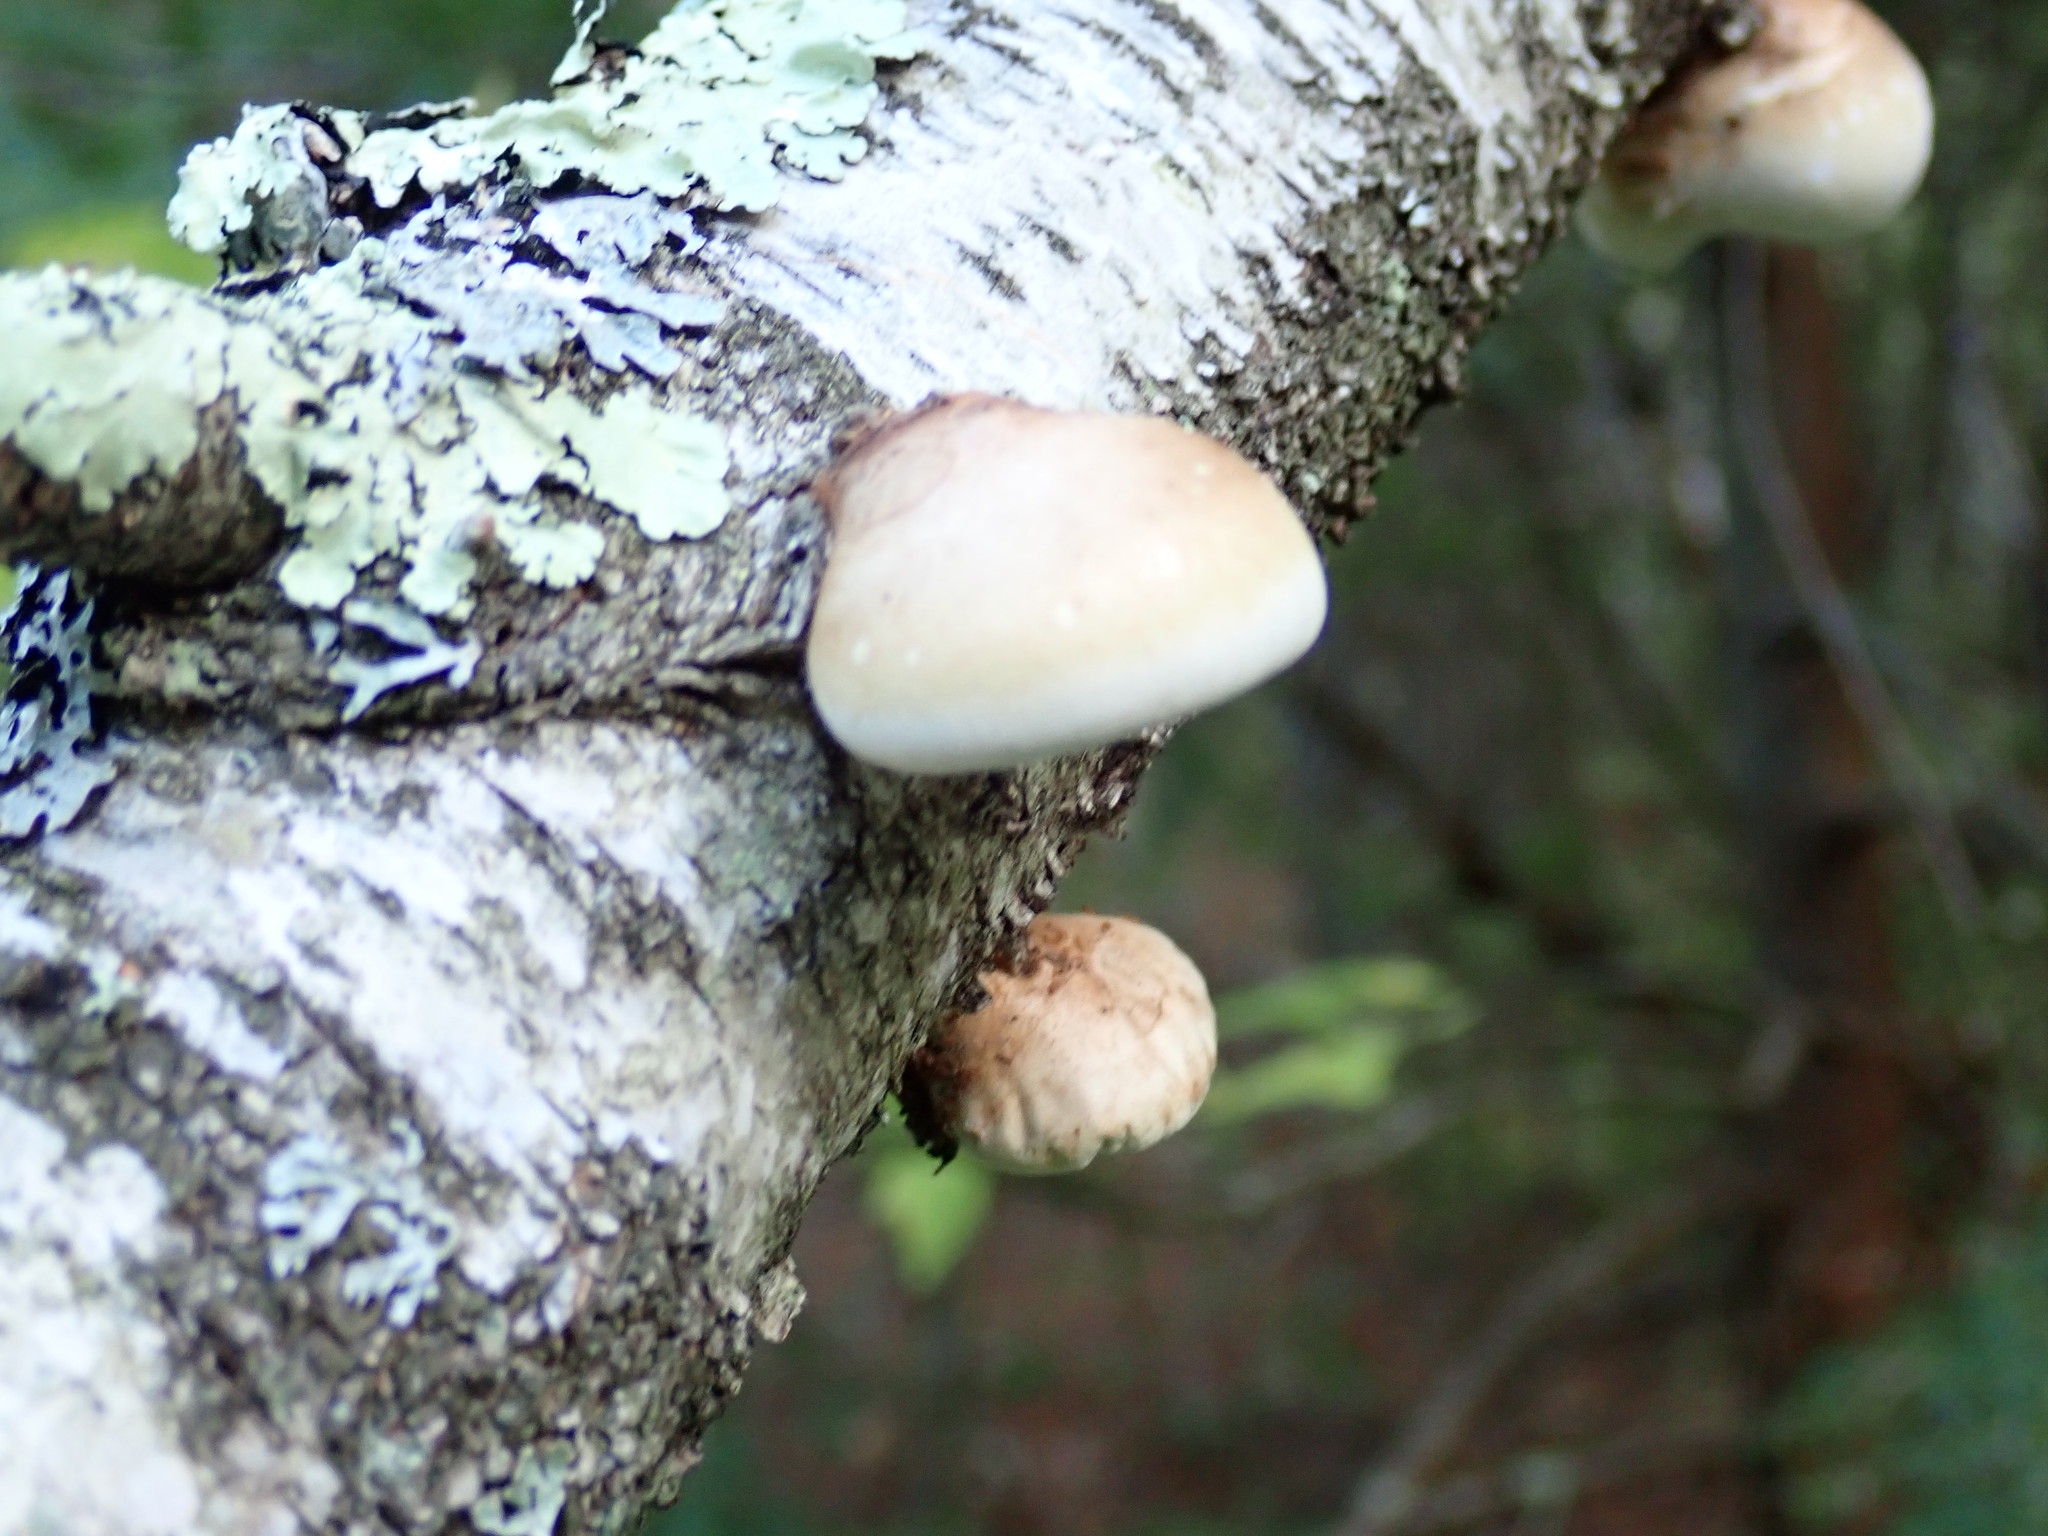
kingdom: Fungi
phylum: Basidiomycota
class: Agaricomycetes
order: Polyporales
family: Fomitopsidaceae
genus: Fomitopsis
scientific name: Fomitopsis betulina
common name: Birch polypore
